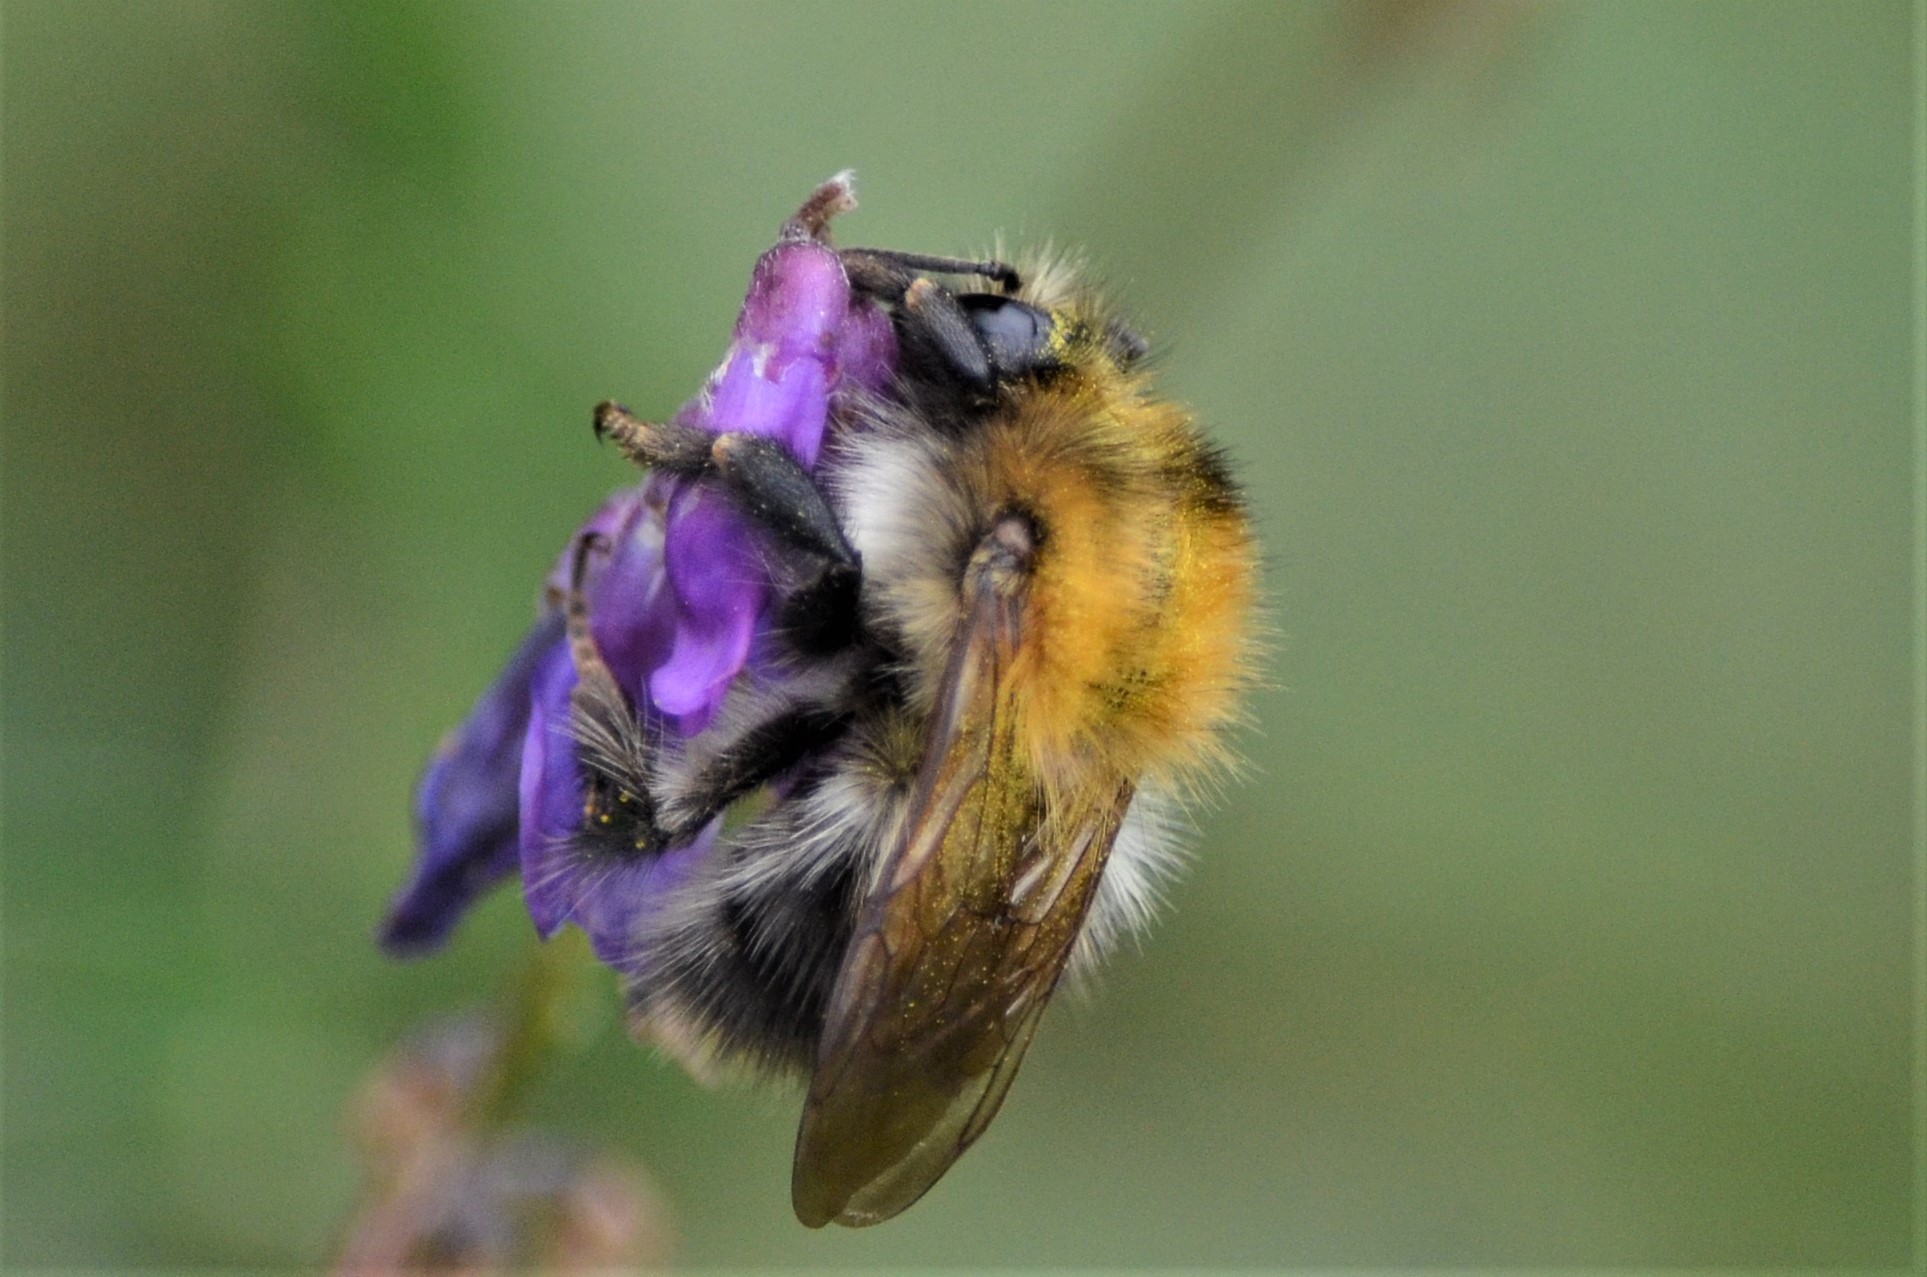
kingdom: Animalia
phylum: Arthropoda
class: Insecta
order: Hymenoptera
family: Apidae
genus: Bombus
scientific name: Bombus pascuorum
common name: Common carder bee
